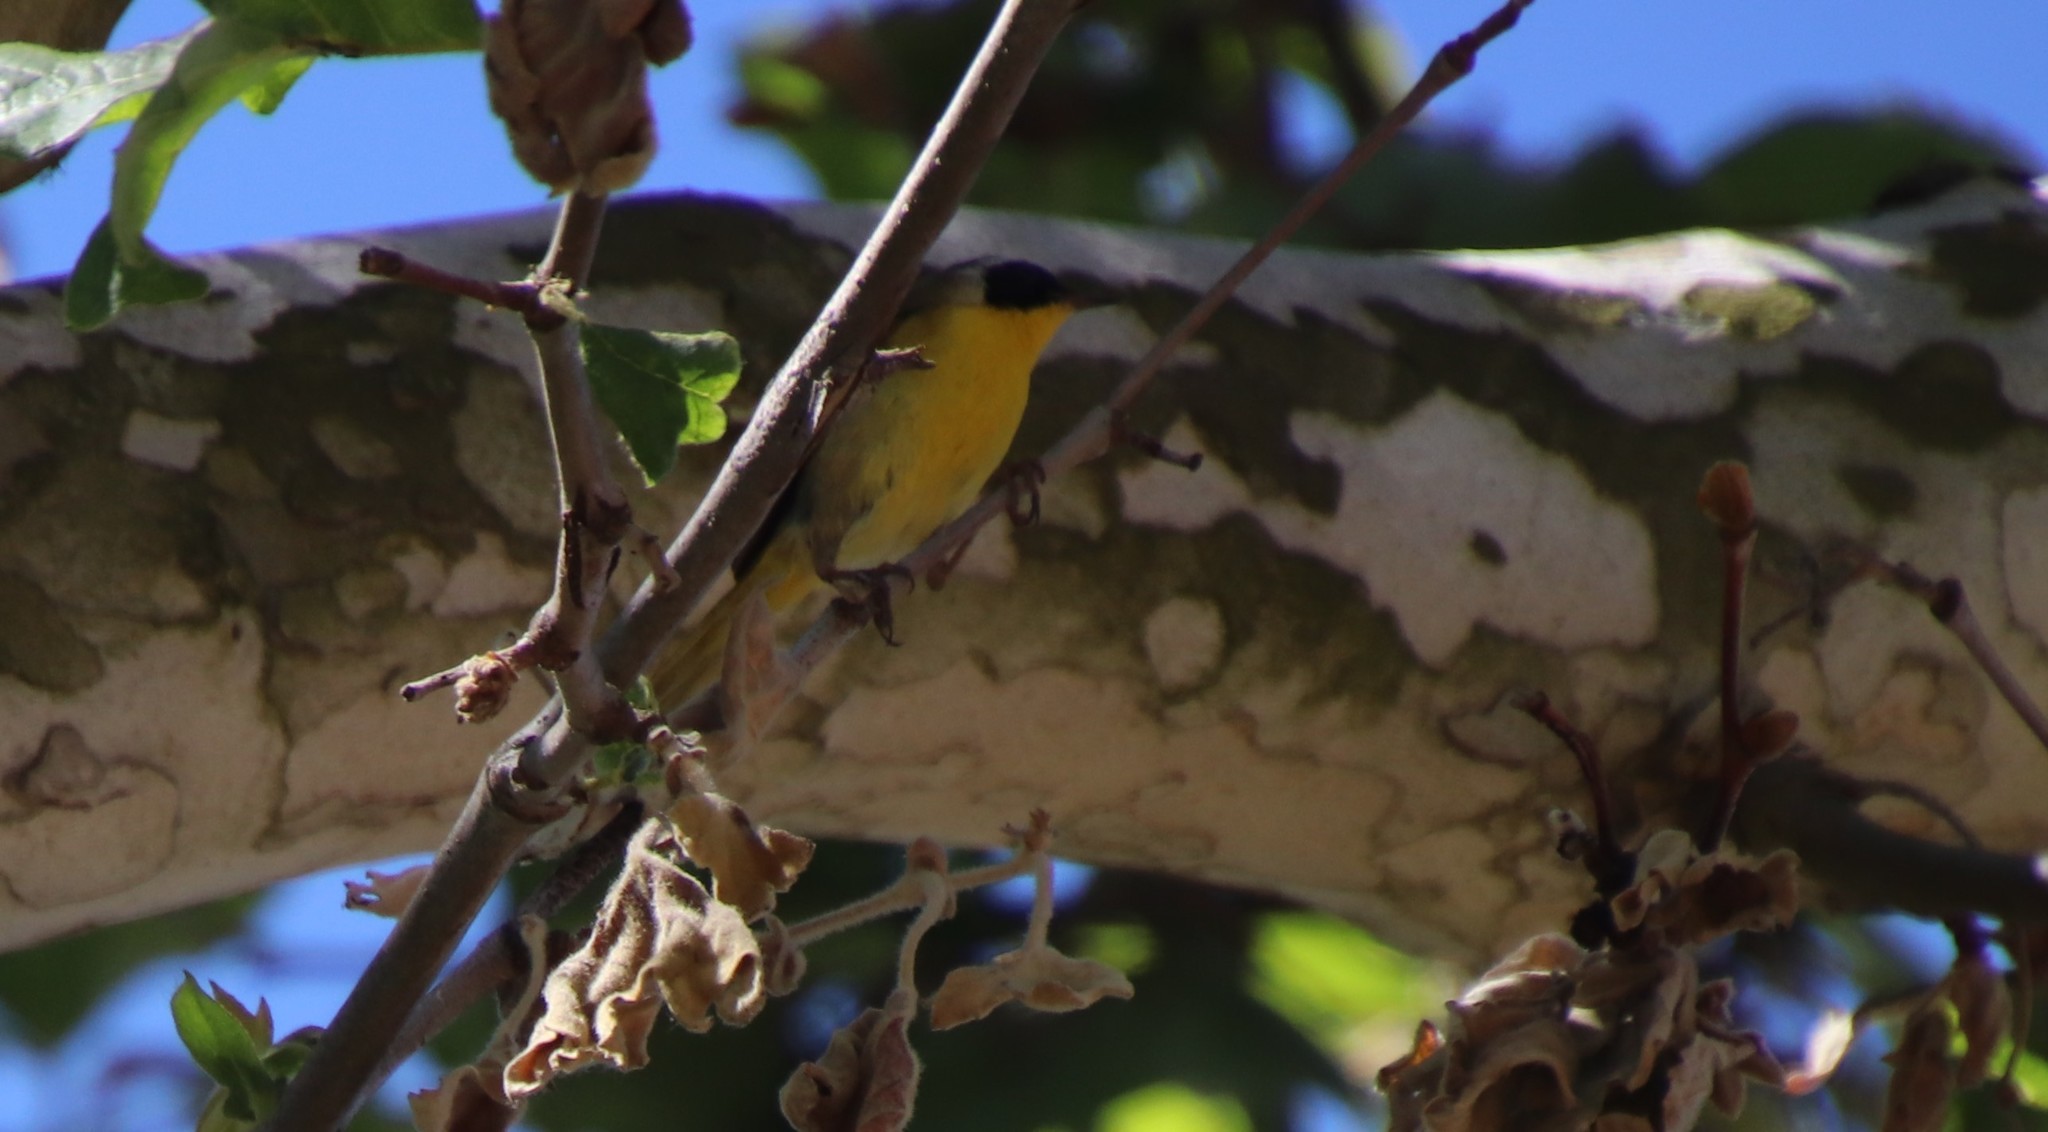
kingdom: Animalia
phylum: Chordata
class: Aves
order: Passeriformes
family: Parulidae
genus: Geothlypis
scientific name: Geothlypis trichas
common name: Common yellowthroat
